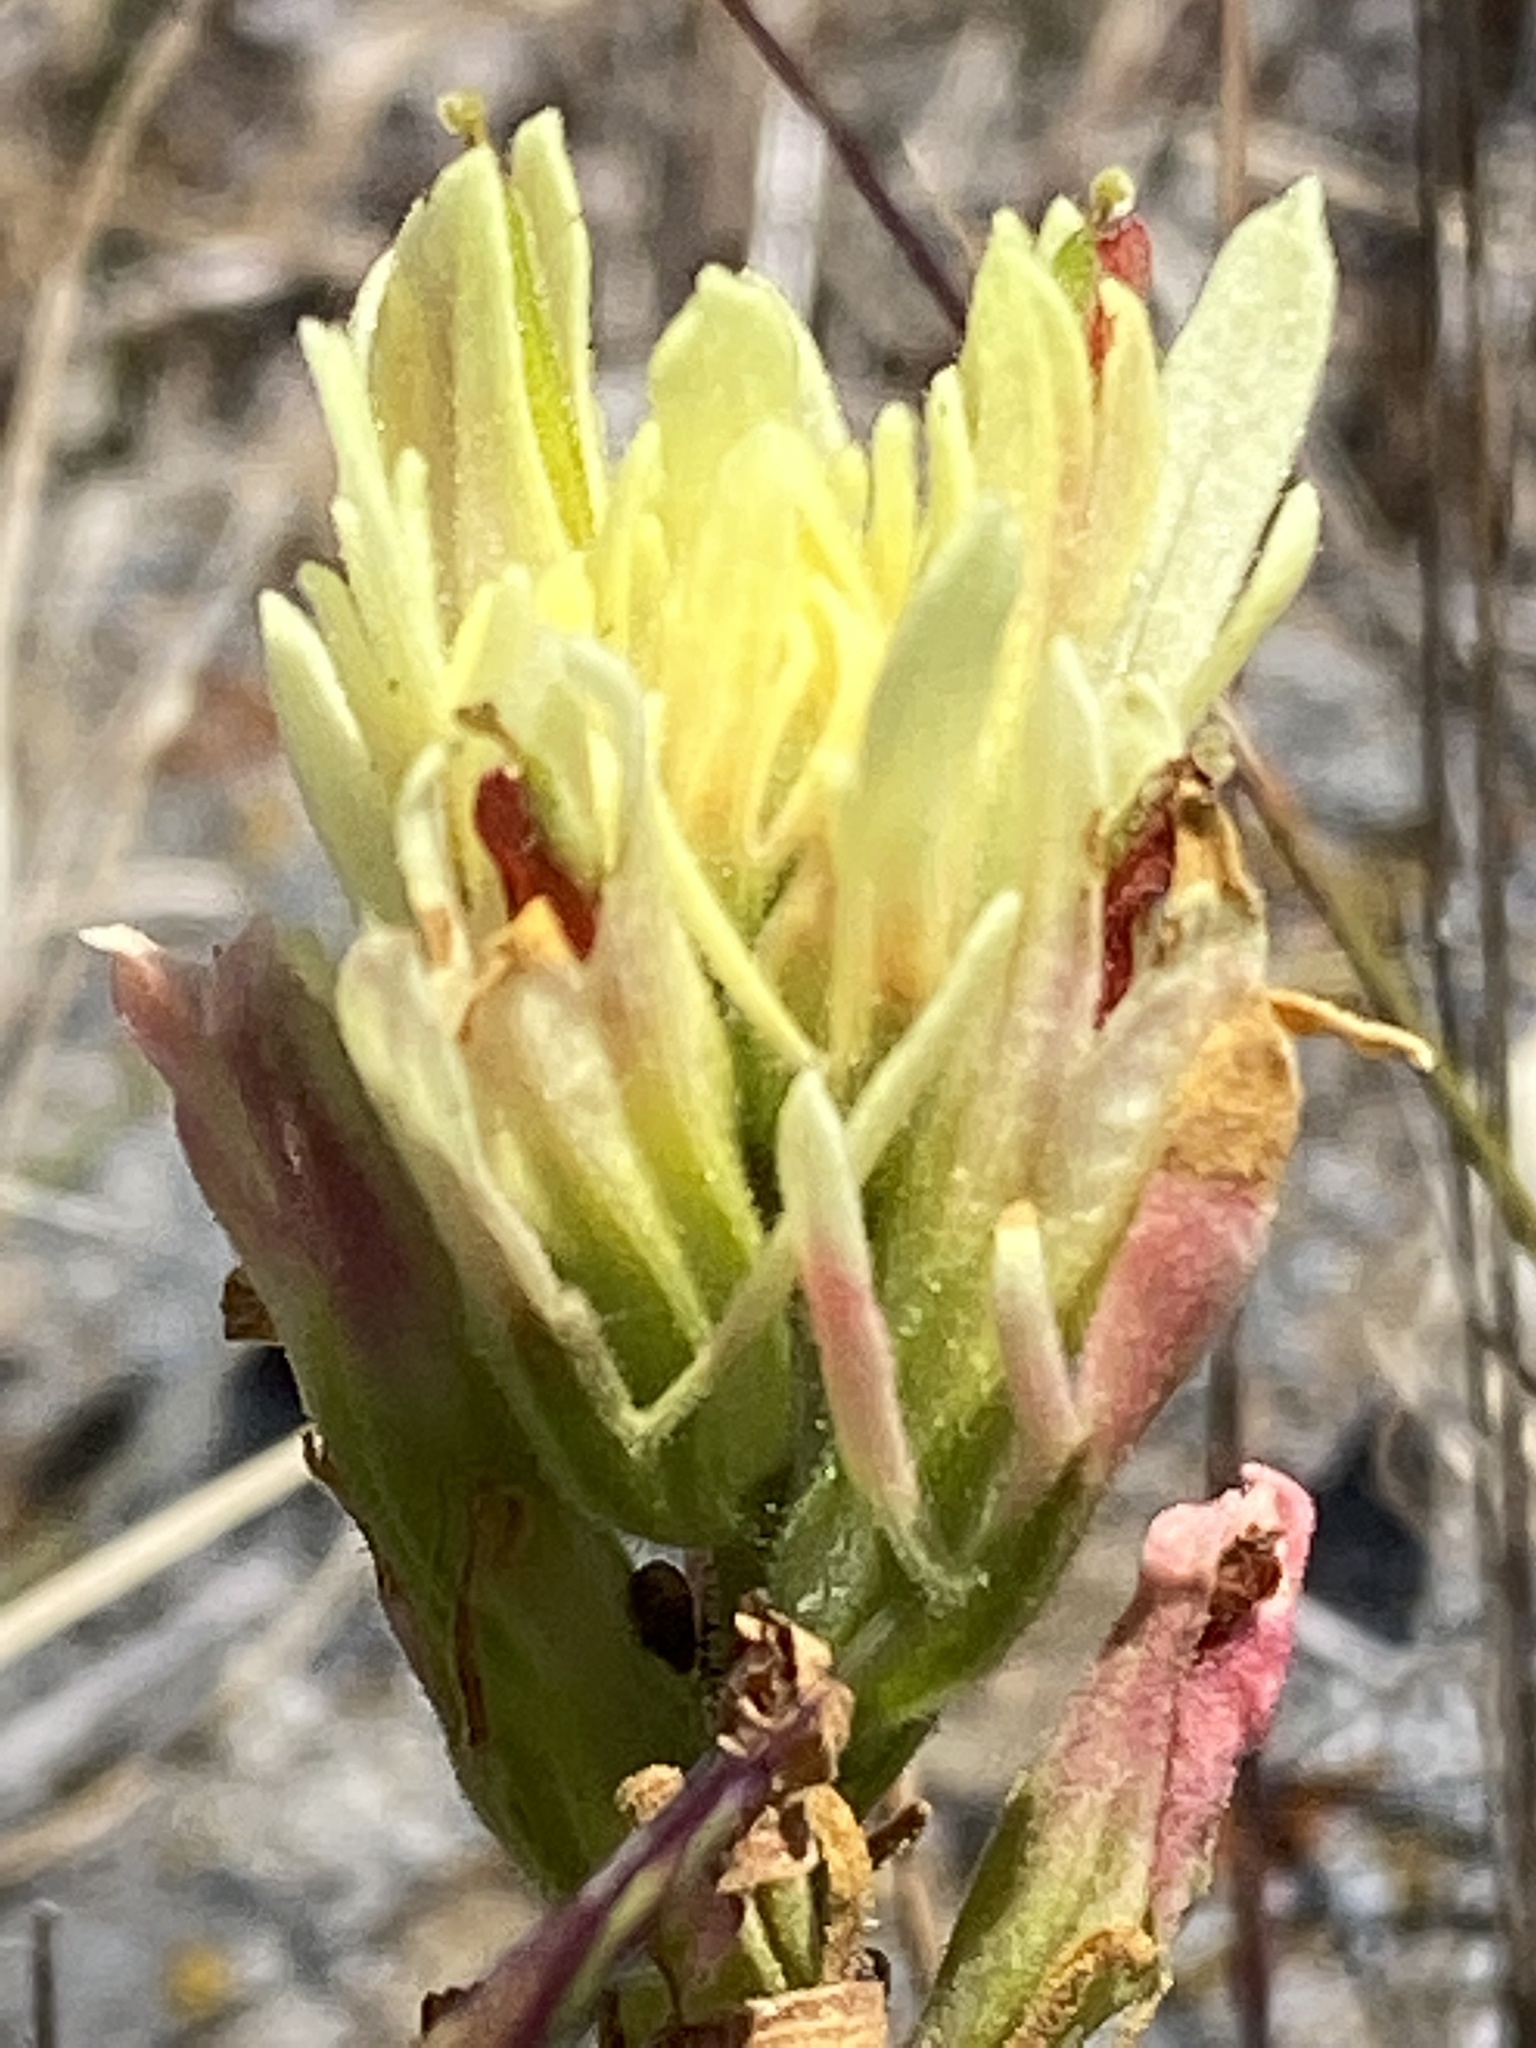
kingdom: Plantae
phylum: Tracheophyta
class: Magnoliopsida
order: Lamiales
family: Orobanchaceae
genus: Castilleja
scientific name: Castilleja affinis
